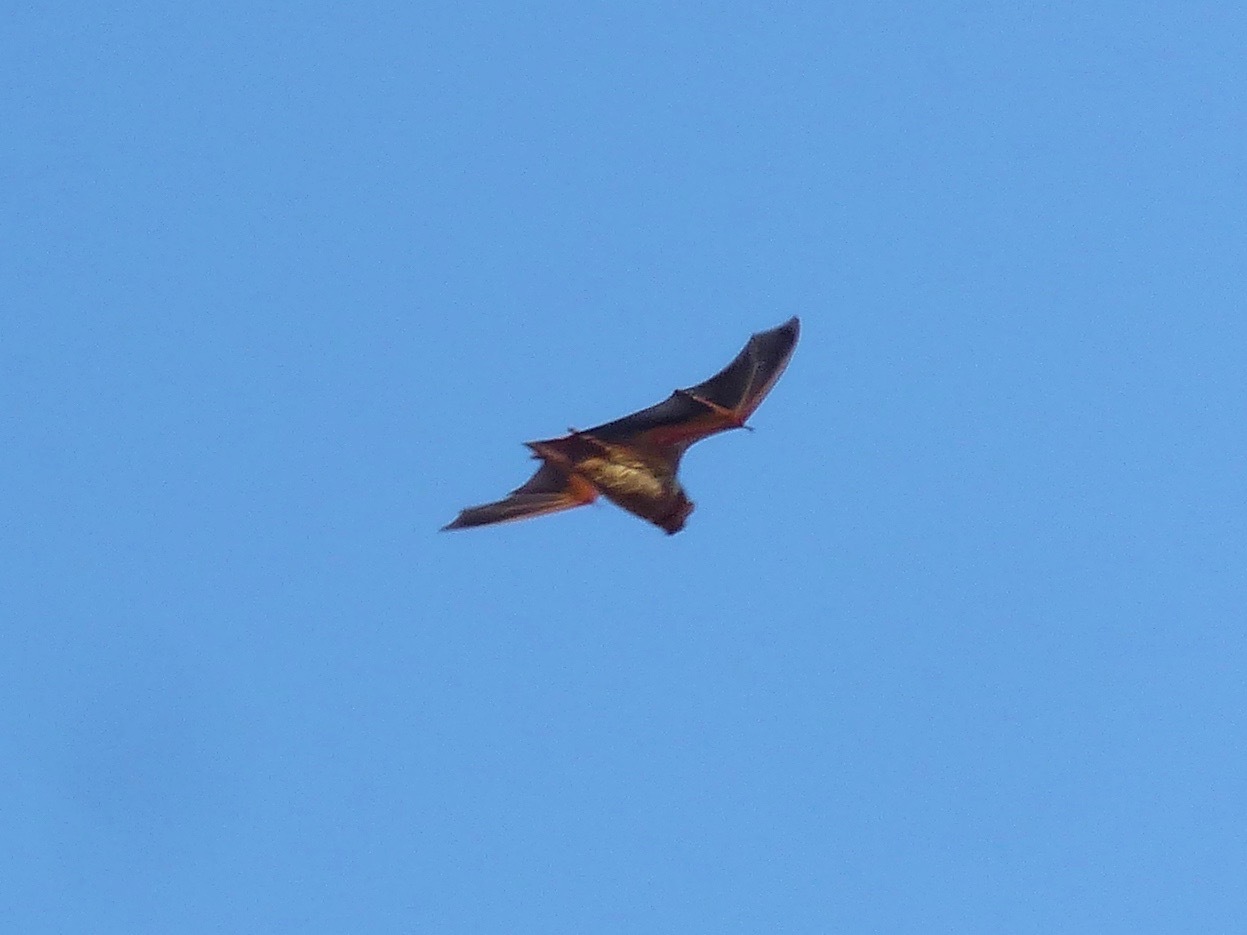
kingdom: Animalia
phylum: Chordata
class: Mammalia
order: Chiroptera
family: Vespertilionidae
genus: Lasiurus
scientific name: Lasiurus borealis
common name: Eastern red bat
